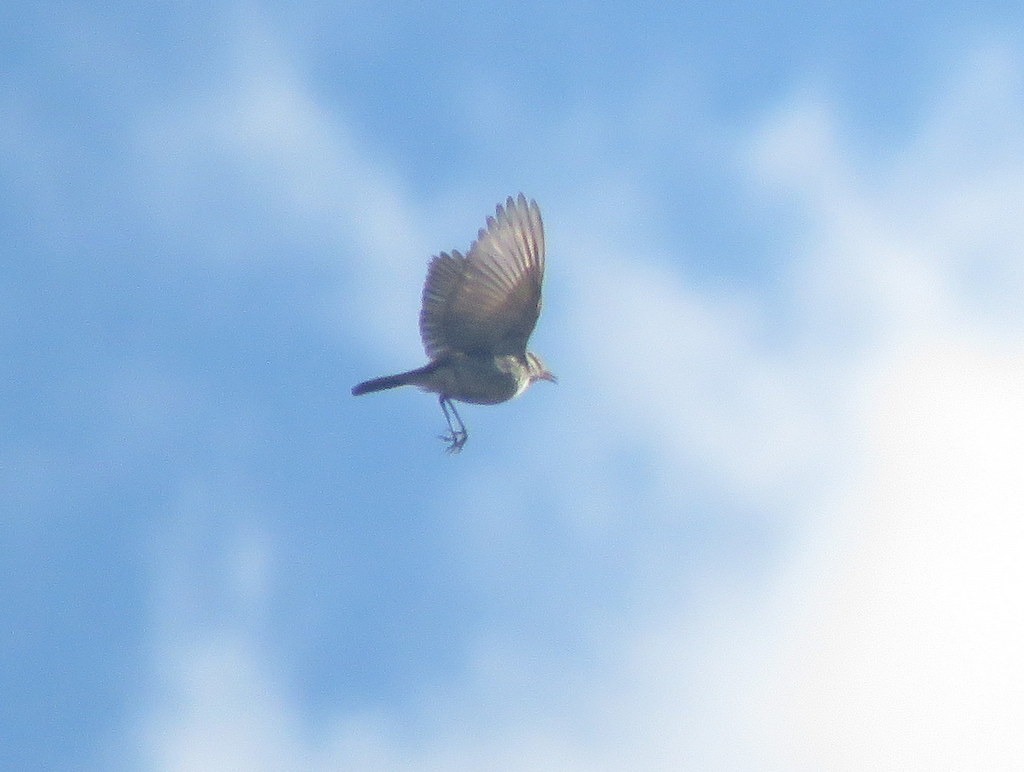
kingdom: Animalia
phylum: Chordata
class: Aves
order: Passeriformes
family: Tyrannidae
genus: Muscisaxicola
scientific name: Muscisaxicola maculirostris
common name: Spot-billed ground tyrant
